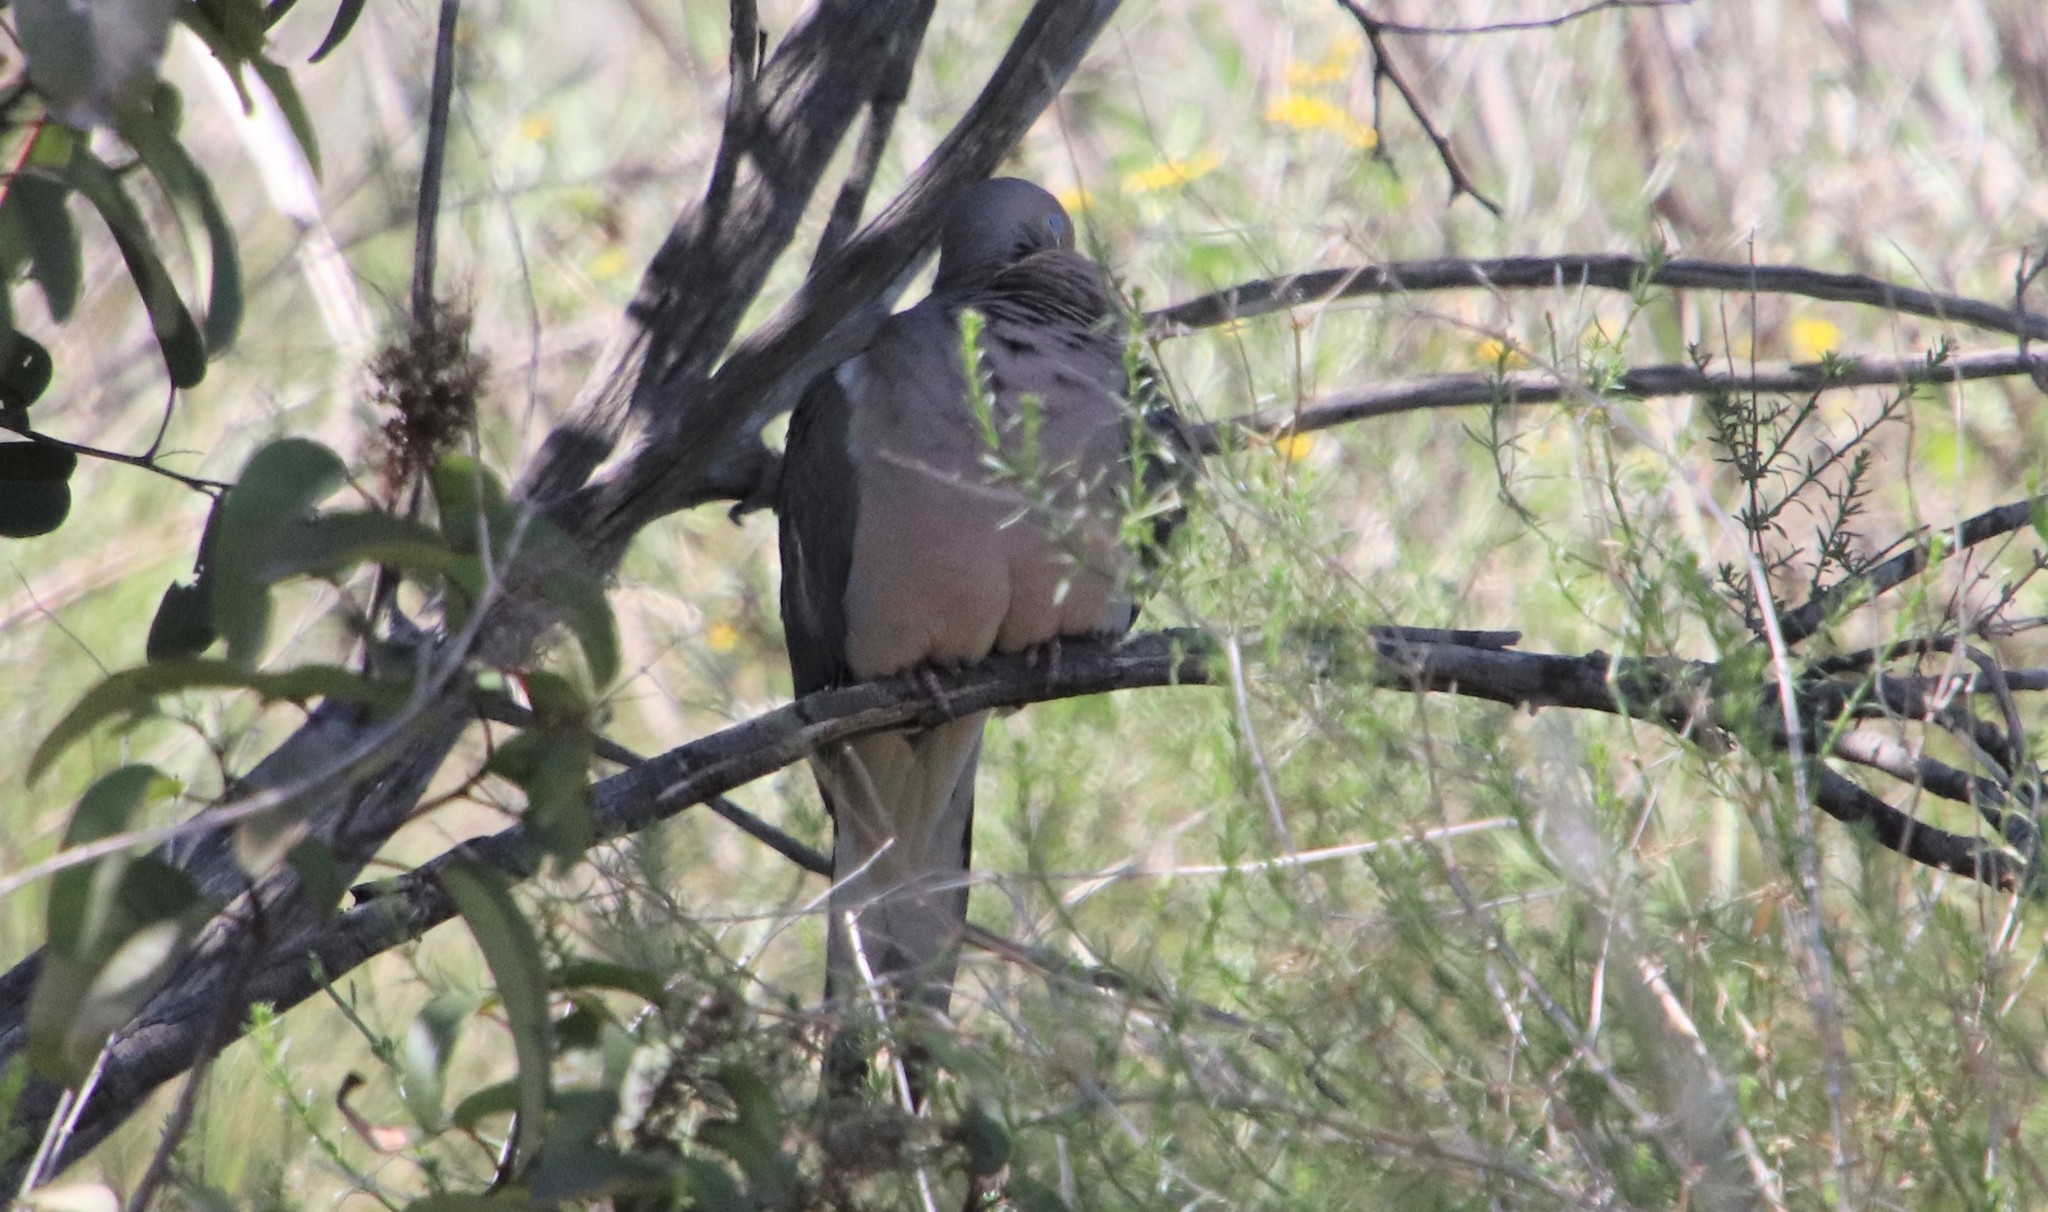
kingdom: Animalia
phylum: Chordata
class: Aves
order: Columbiformes
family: Columbidae
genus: Zenaida
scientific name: Zenaida macroura
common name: Mourning dove
